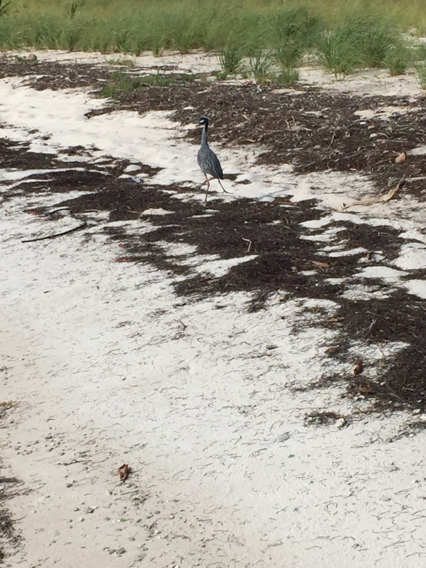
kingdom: Animalia
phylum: Chordata
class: Aves
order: Pelecaniformes
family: Ardeidae
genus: Nyctanassa
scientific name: Nyctanassa violacea
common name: Yellow-crowned night heron
